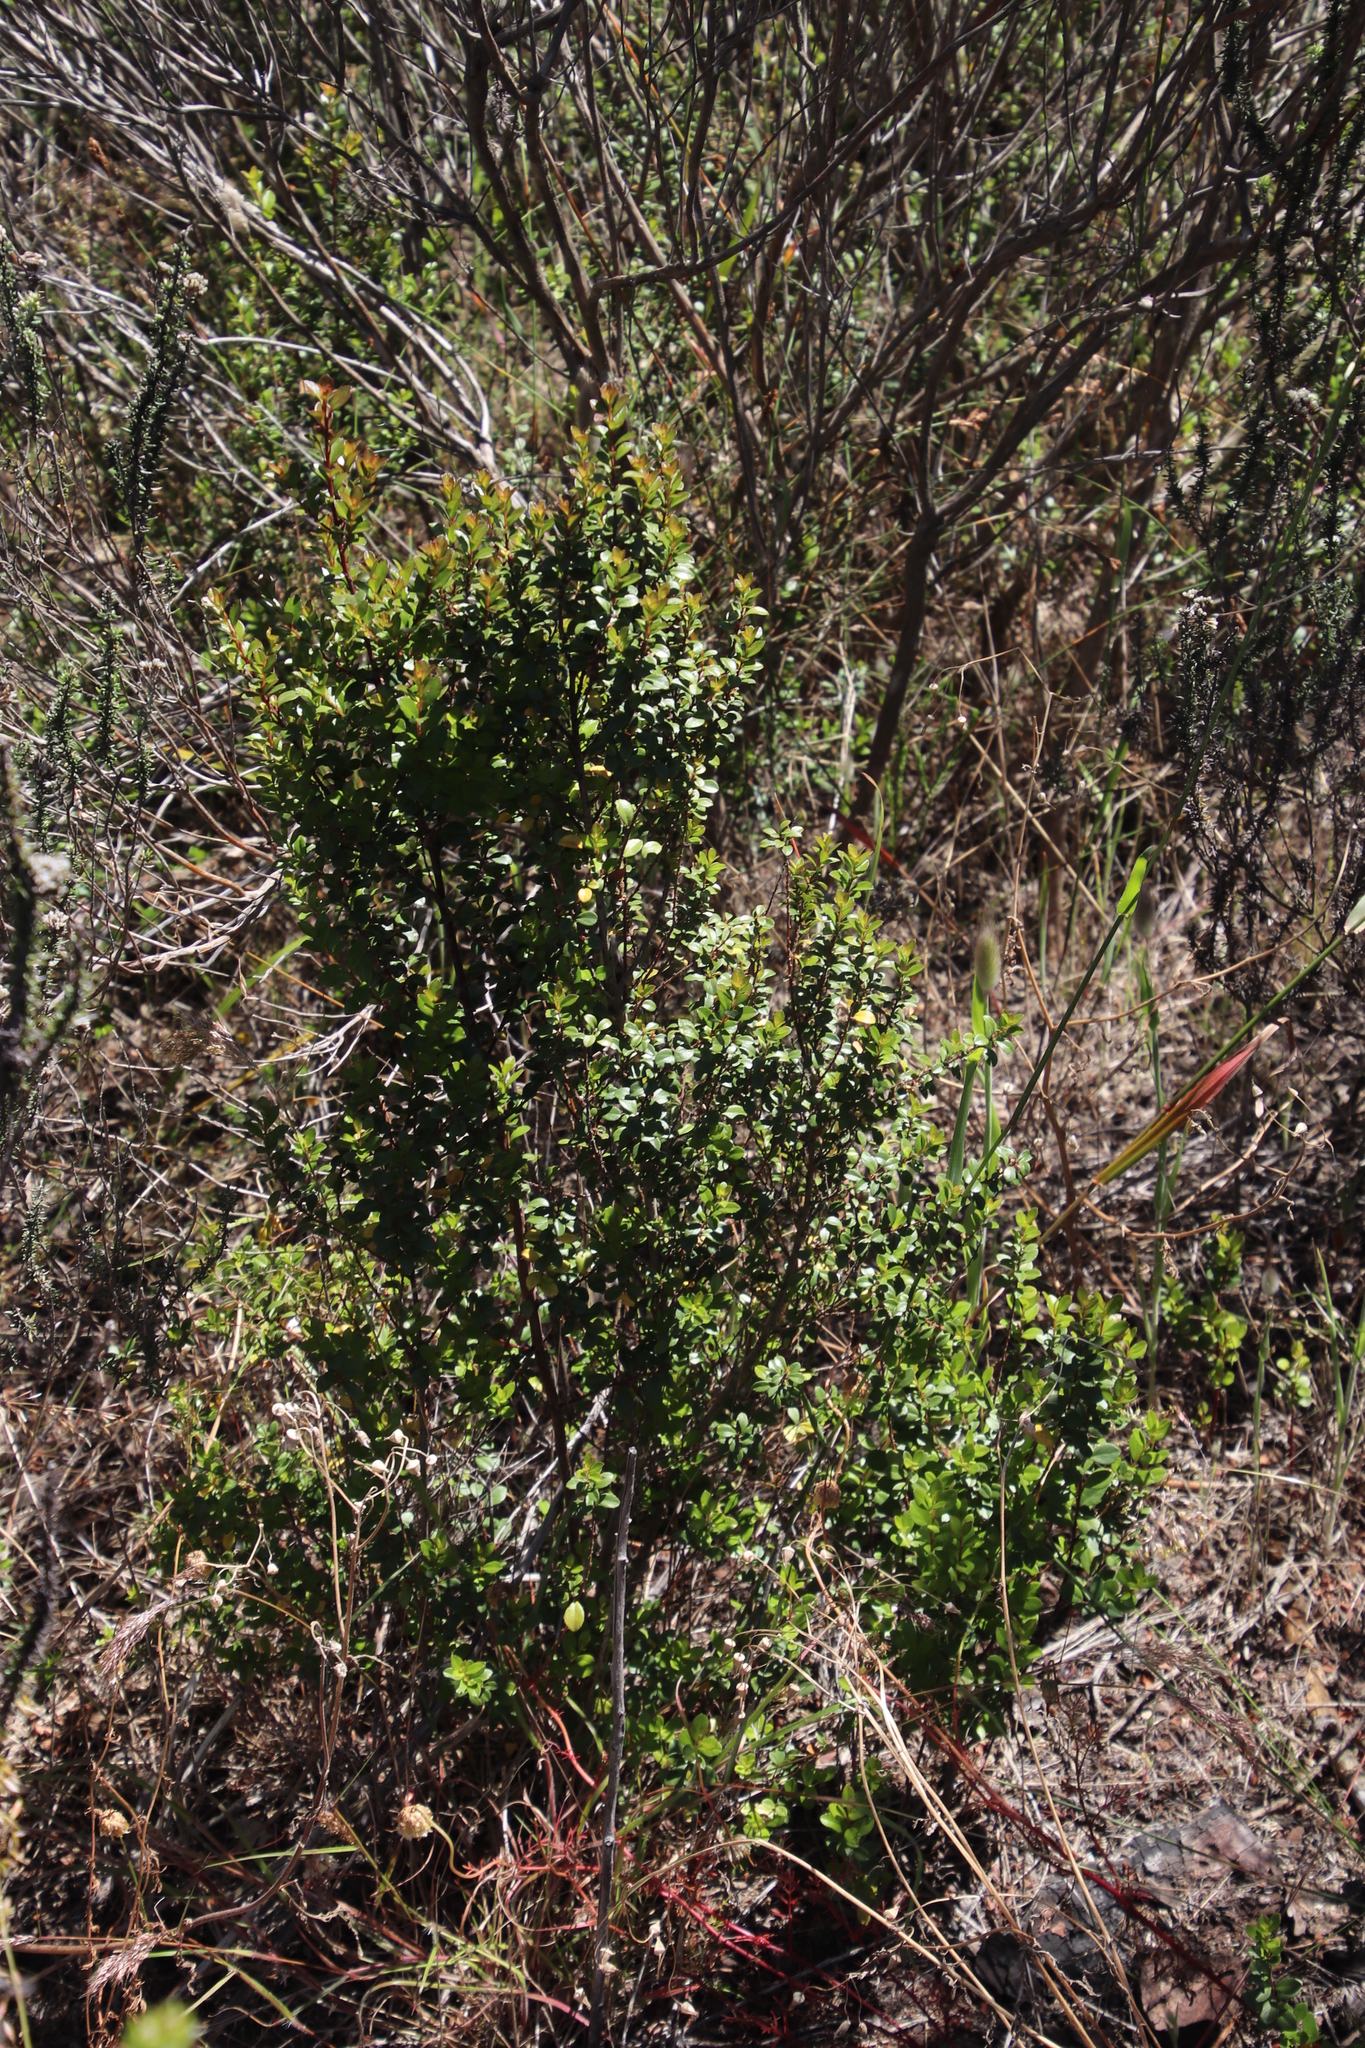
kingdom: Plantae
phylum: Tracheophyta
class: Magnoliopsida
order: Ericales
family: Primulaceae
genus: Myrsine
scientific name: Myrsine africana
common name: African-boxwood
